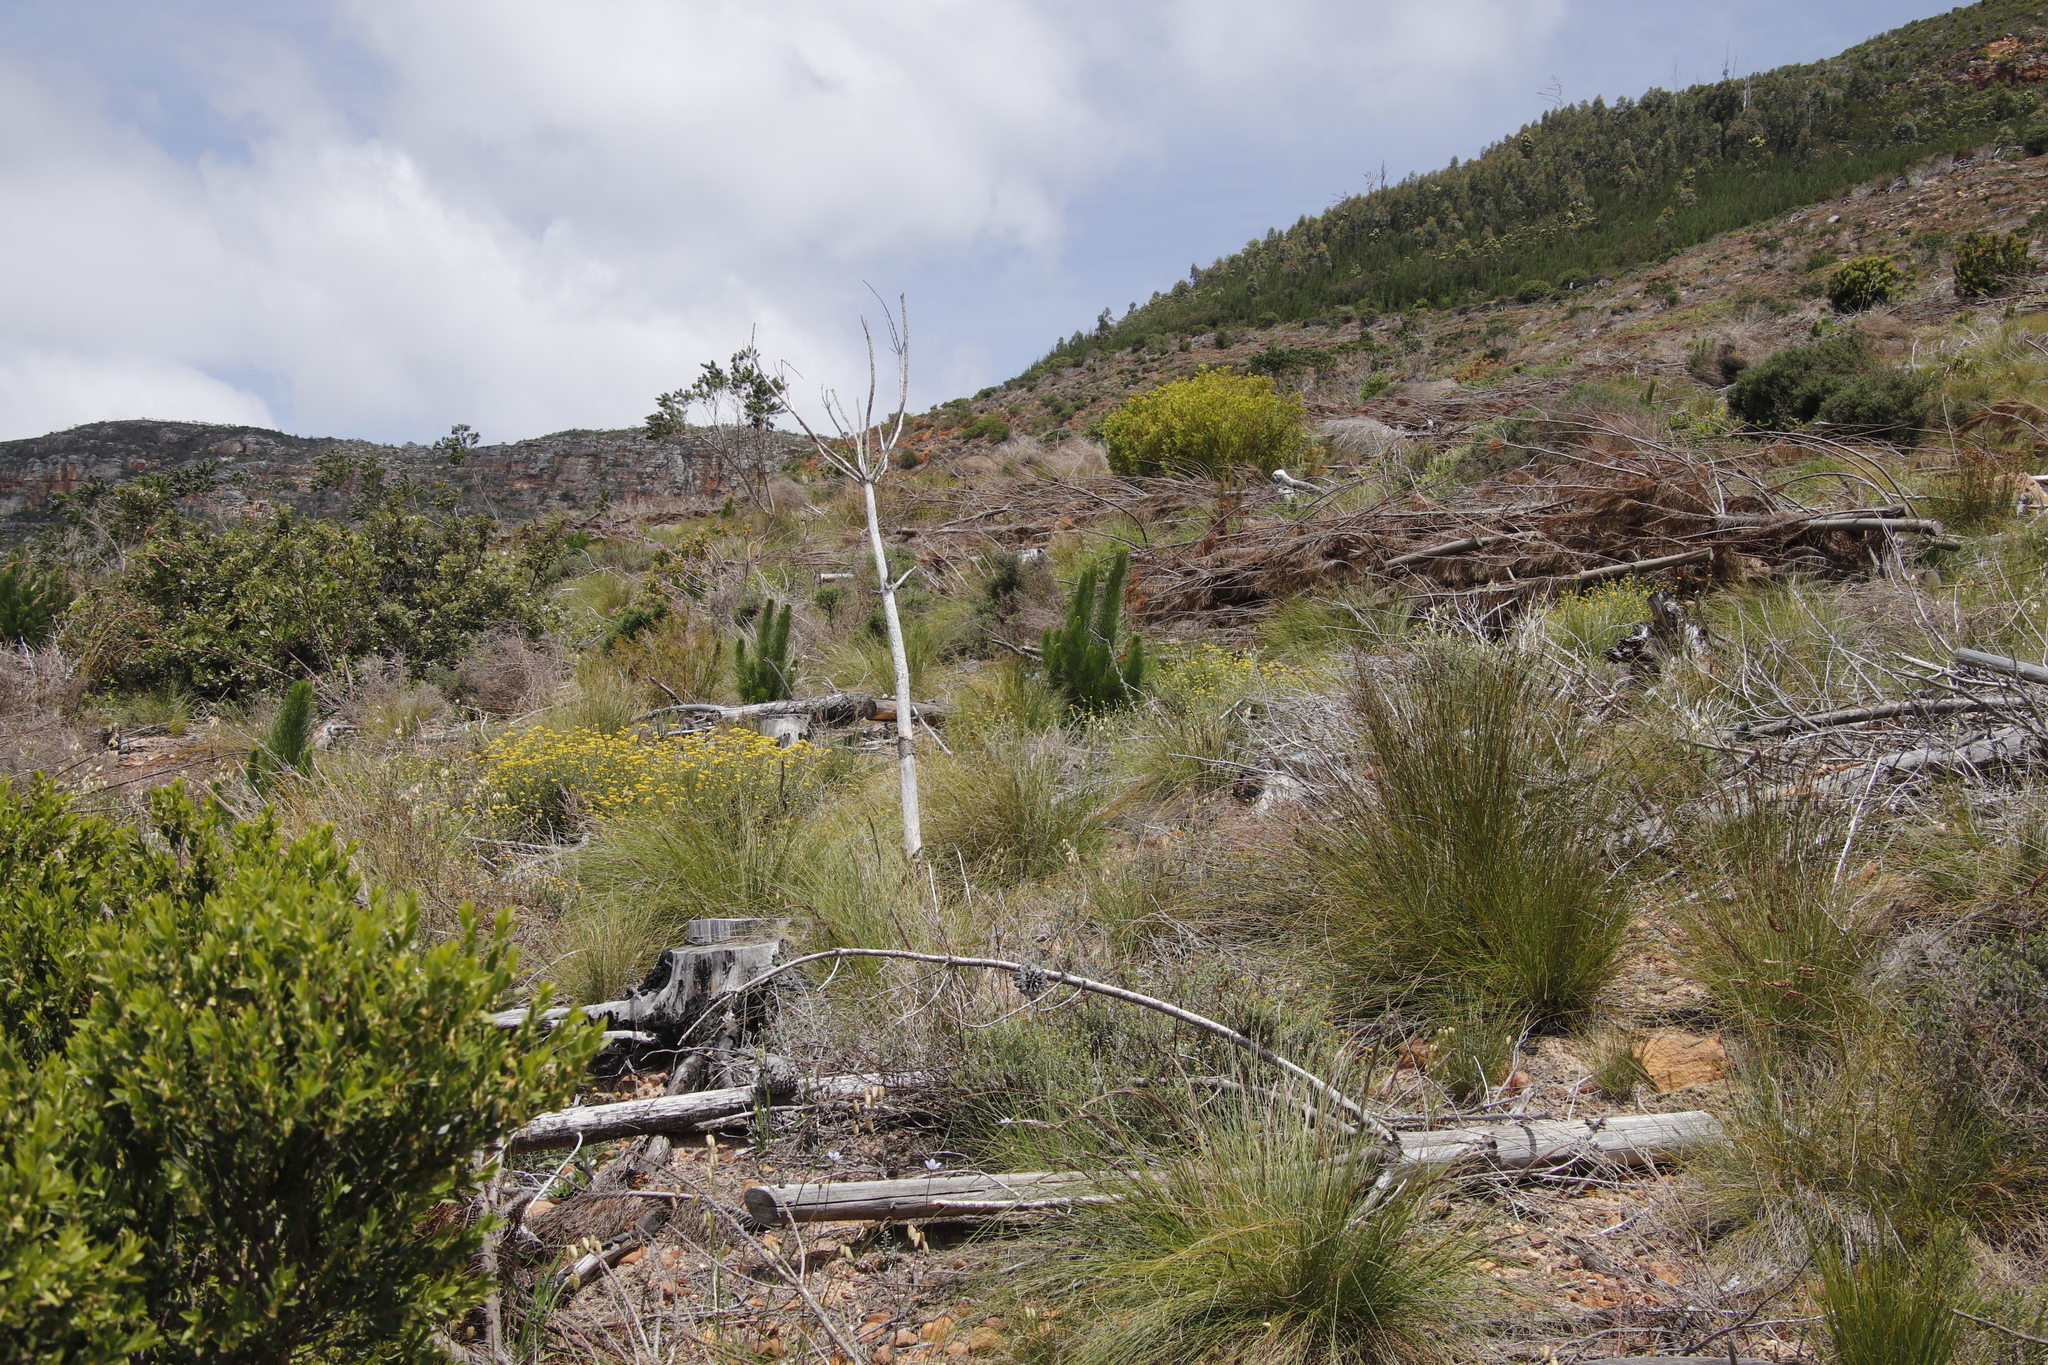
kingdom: Plantae
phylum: Tracheophyta
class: Pinopsida
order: Pinales
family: Pinaceae
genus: Pinus
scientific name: Pinus radiata
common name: Monterey pine
